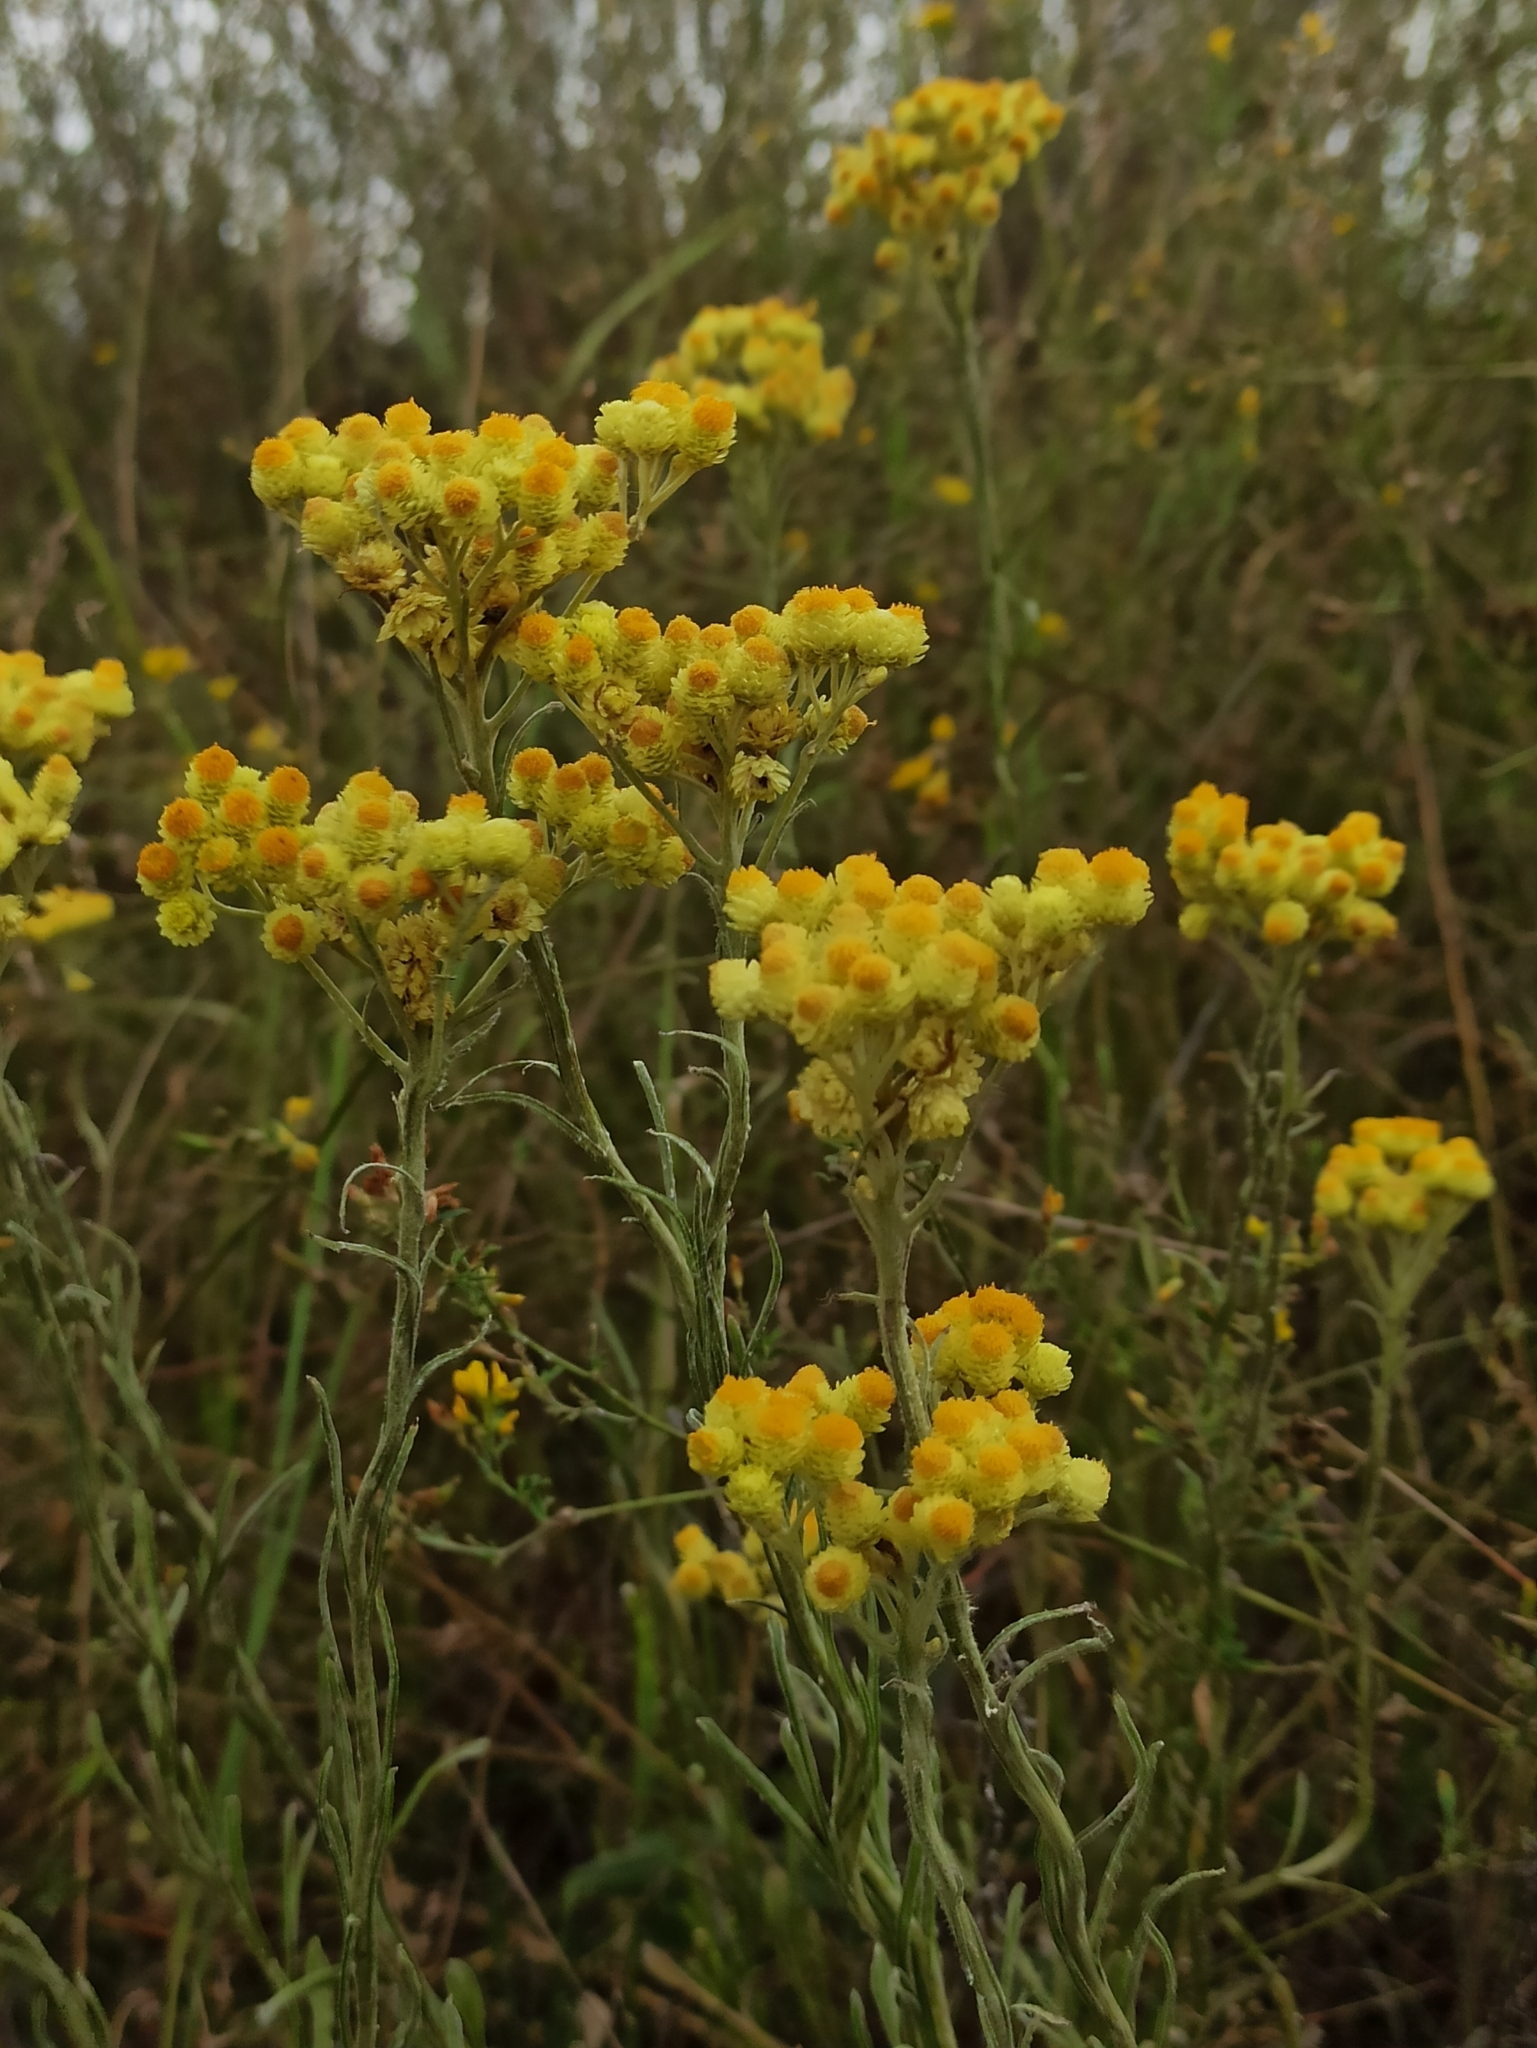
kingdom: Plantae
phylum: Tracheophyta
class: Magnoliopsida
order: Asterales
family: Asteraceae
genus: Helichrysum
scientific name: Helichrysum arenarium
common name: Strawflower
